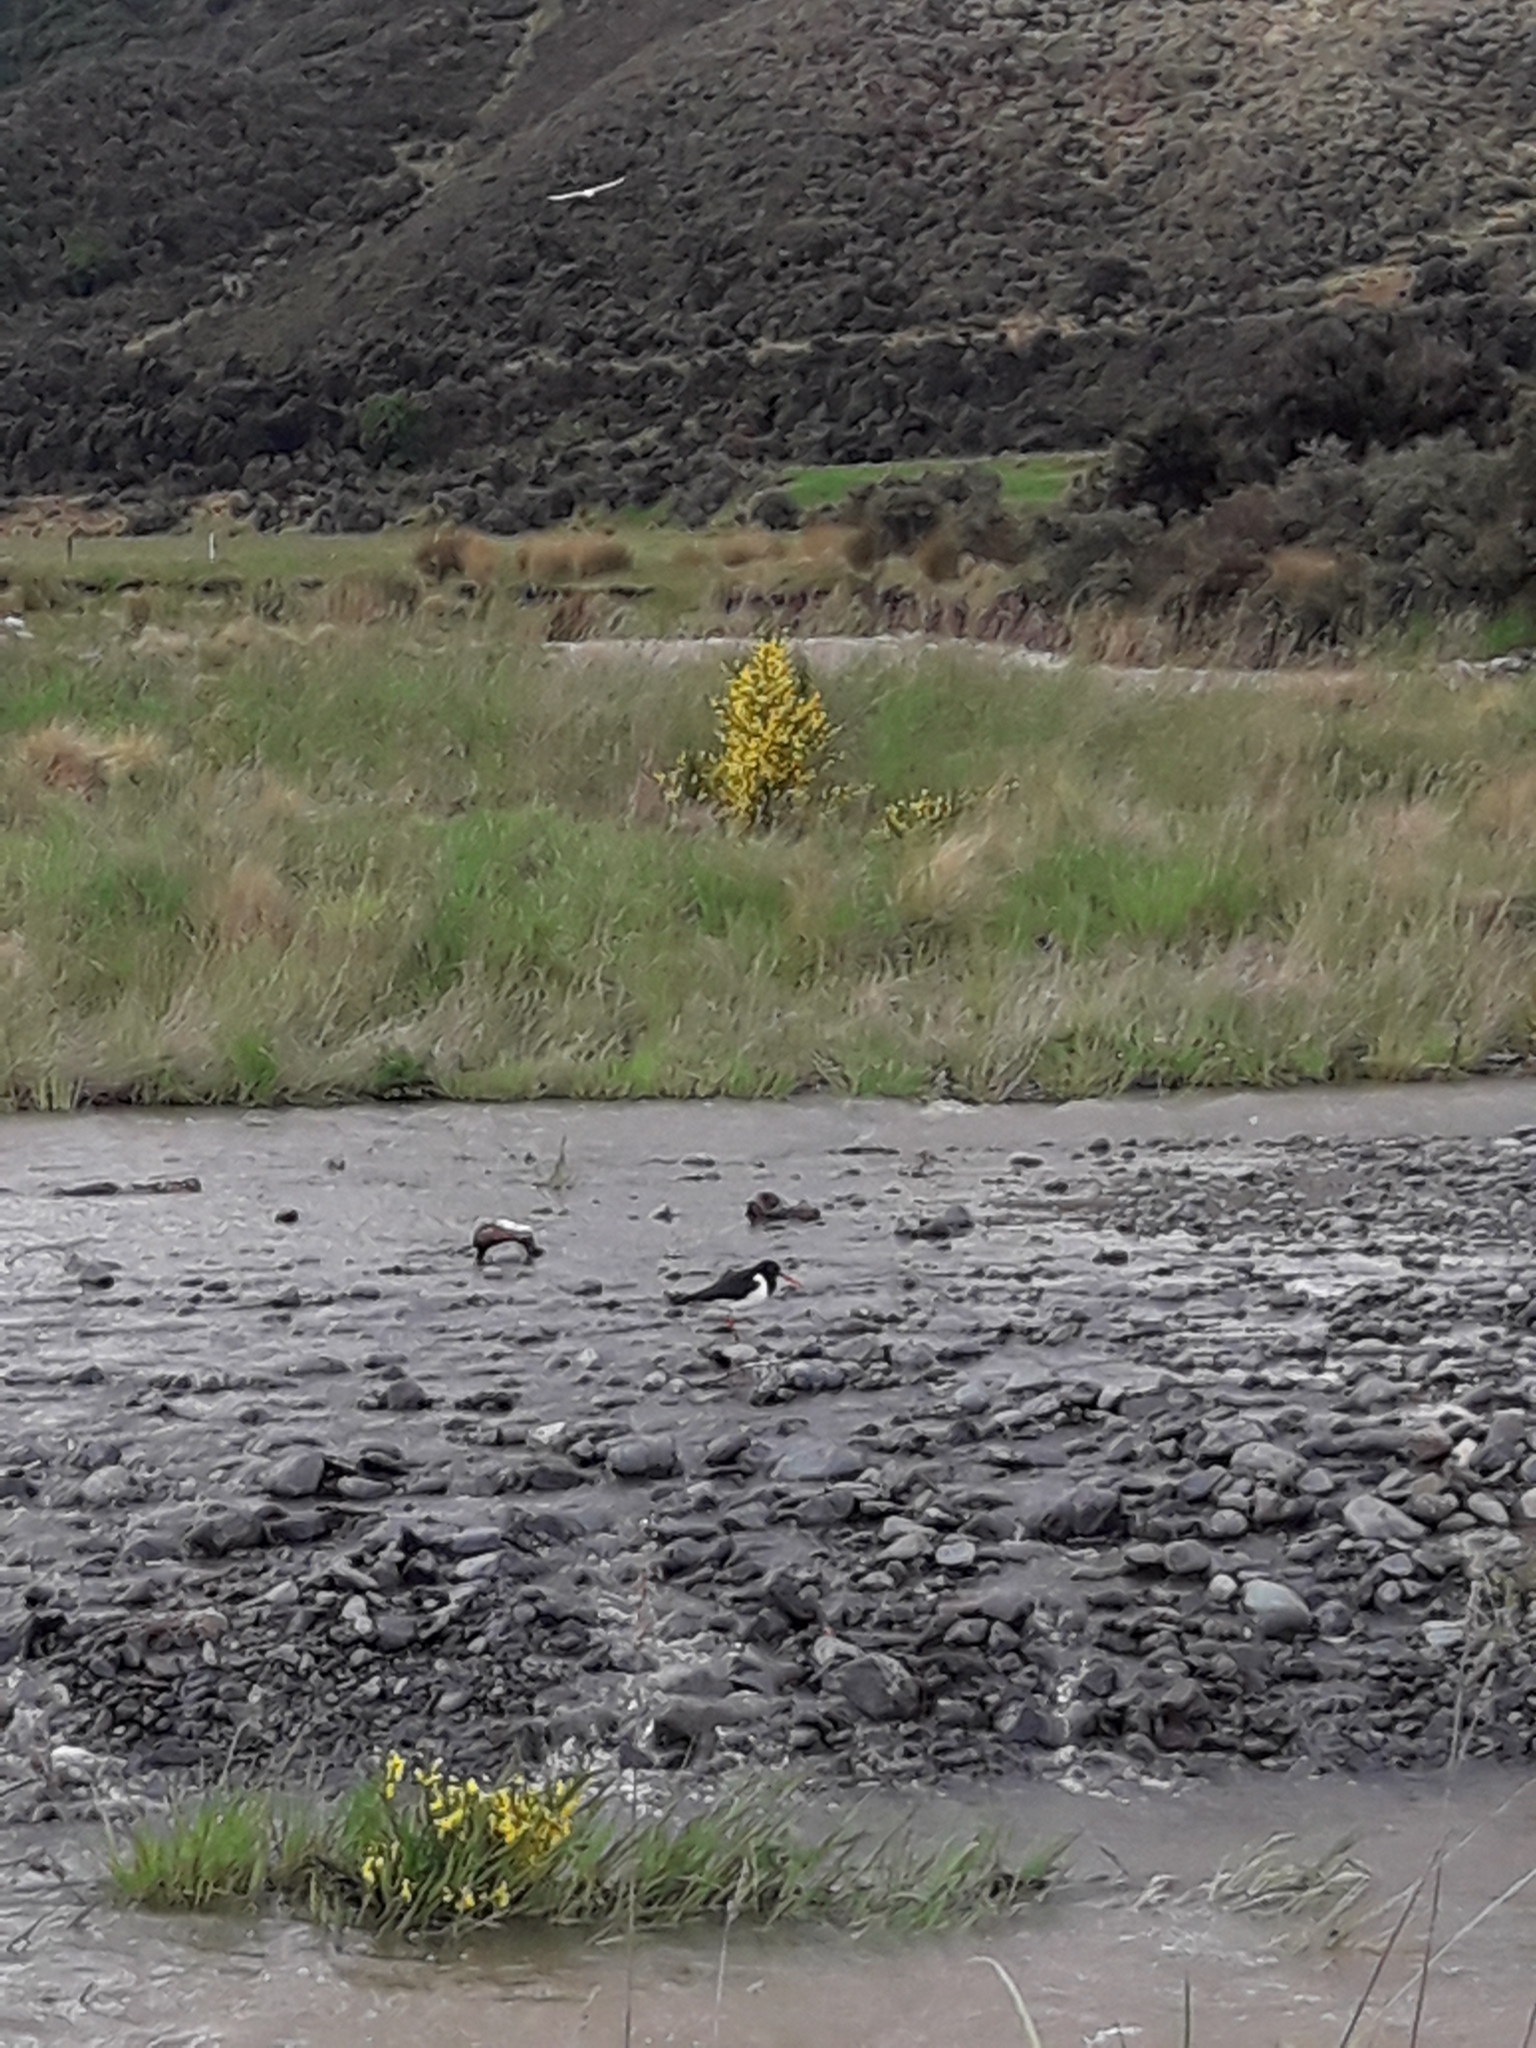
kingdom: Animalia
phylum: Chordata
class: Aves
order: Charadriiformes
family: Haematopodidae
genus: Haematopus
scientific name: Haematopus finschi
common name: South island oystercatcher
